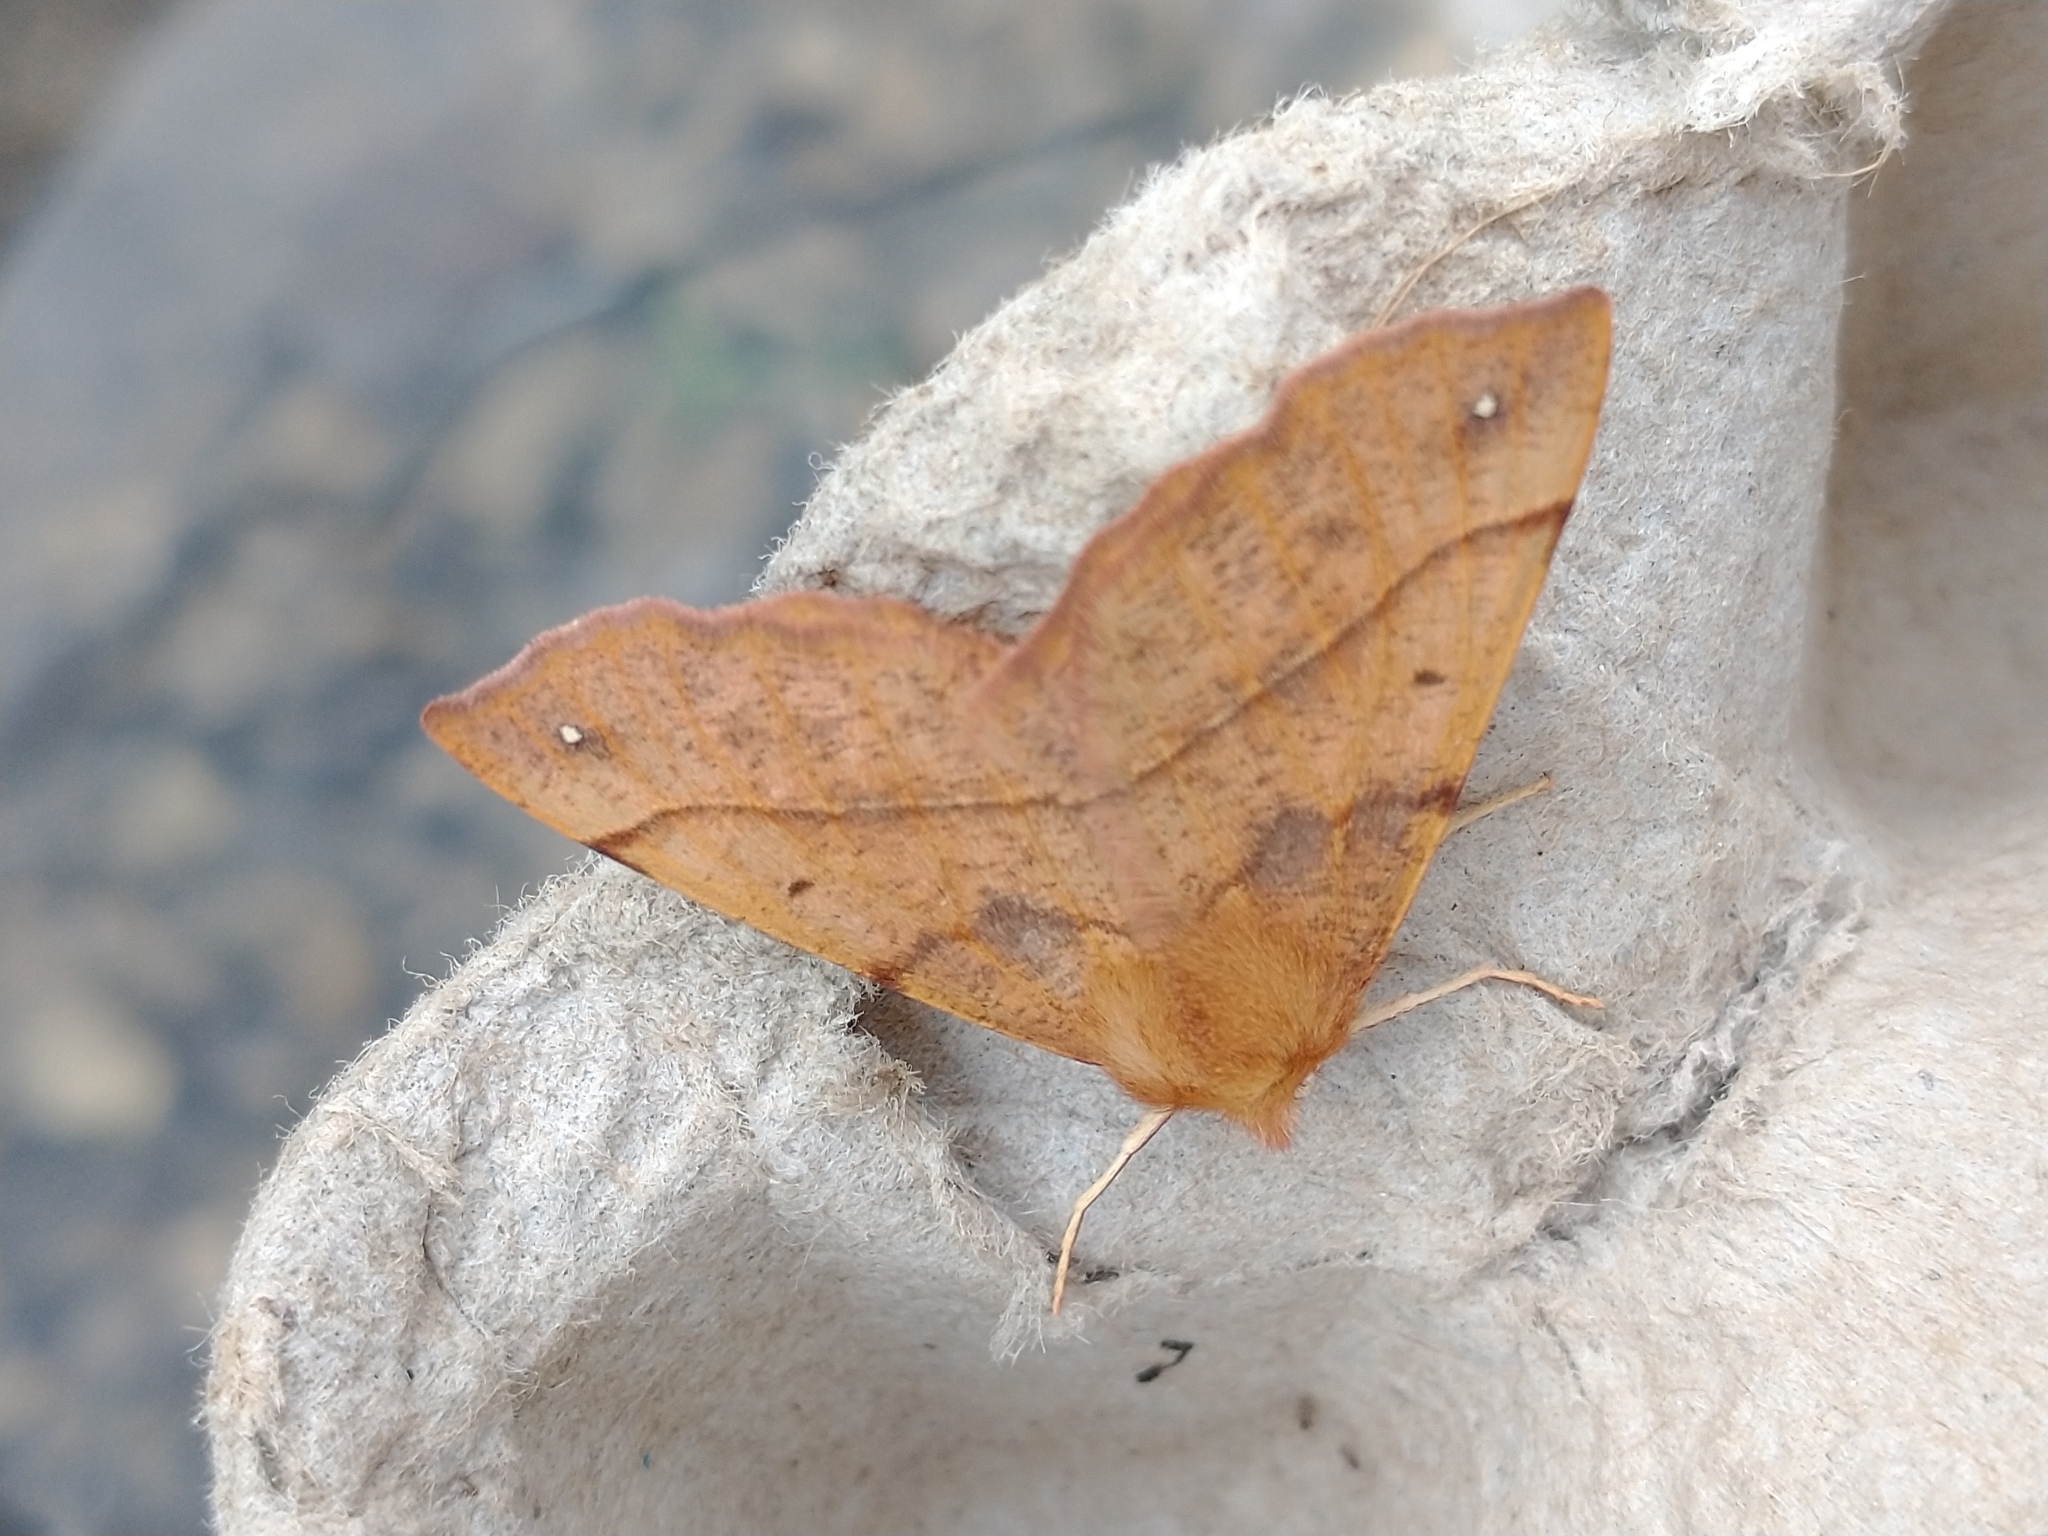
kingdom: Animalia
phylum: Arthropoda
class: Insecta
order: Lepidoptera
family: Geometridae
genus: Colotois
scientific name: Colotois pennaria
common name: Feathered thorn
